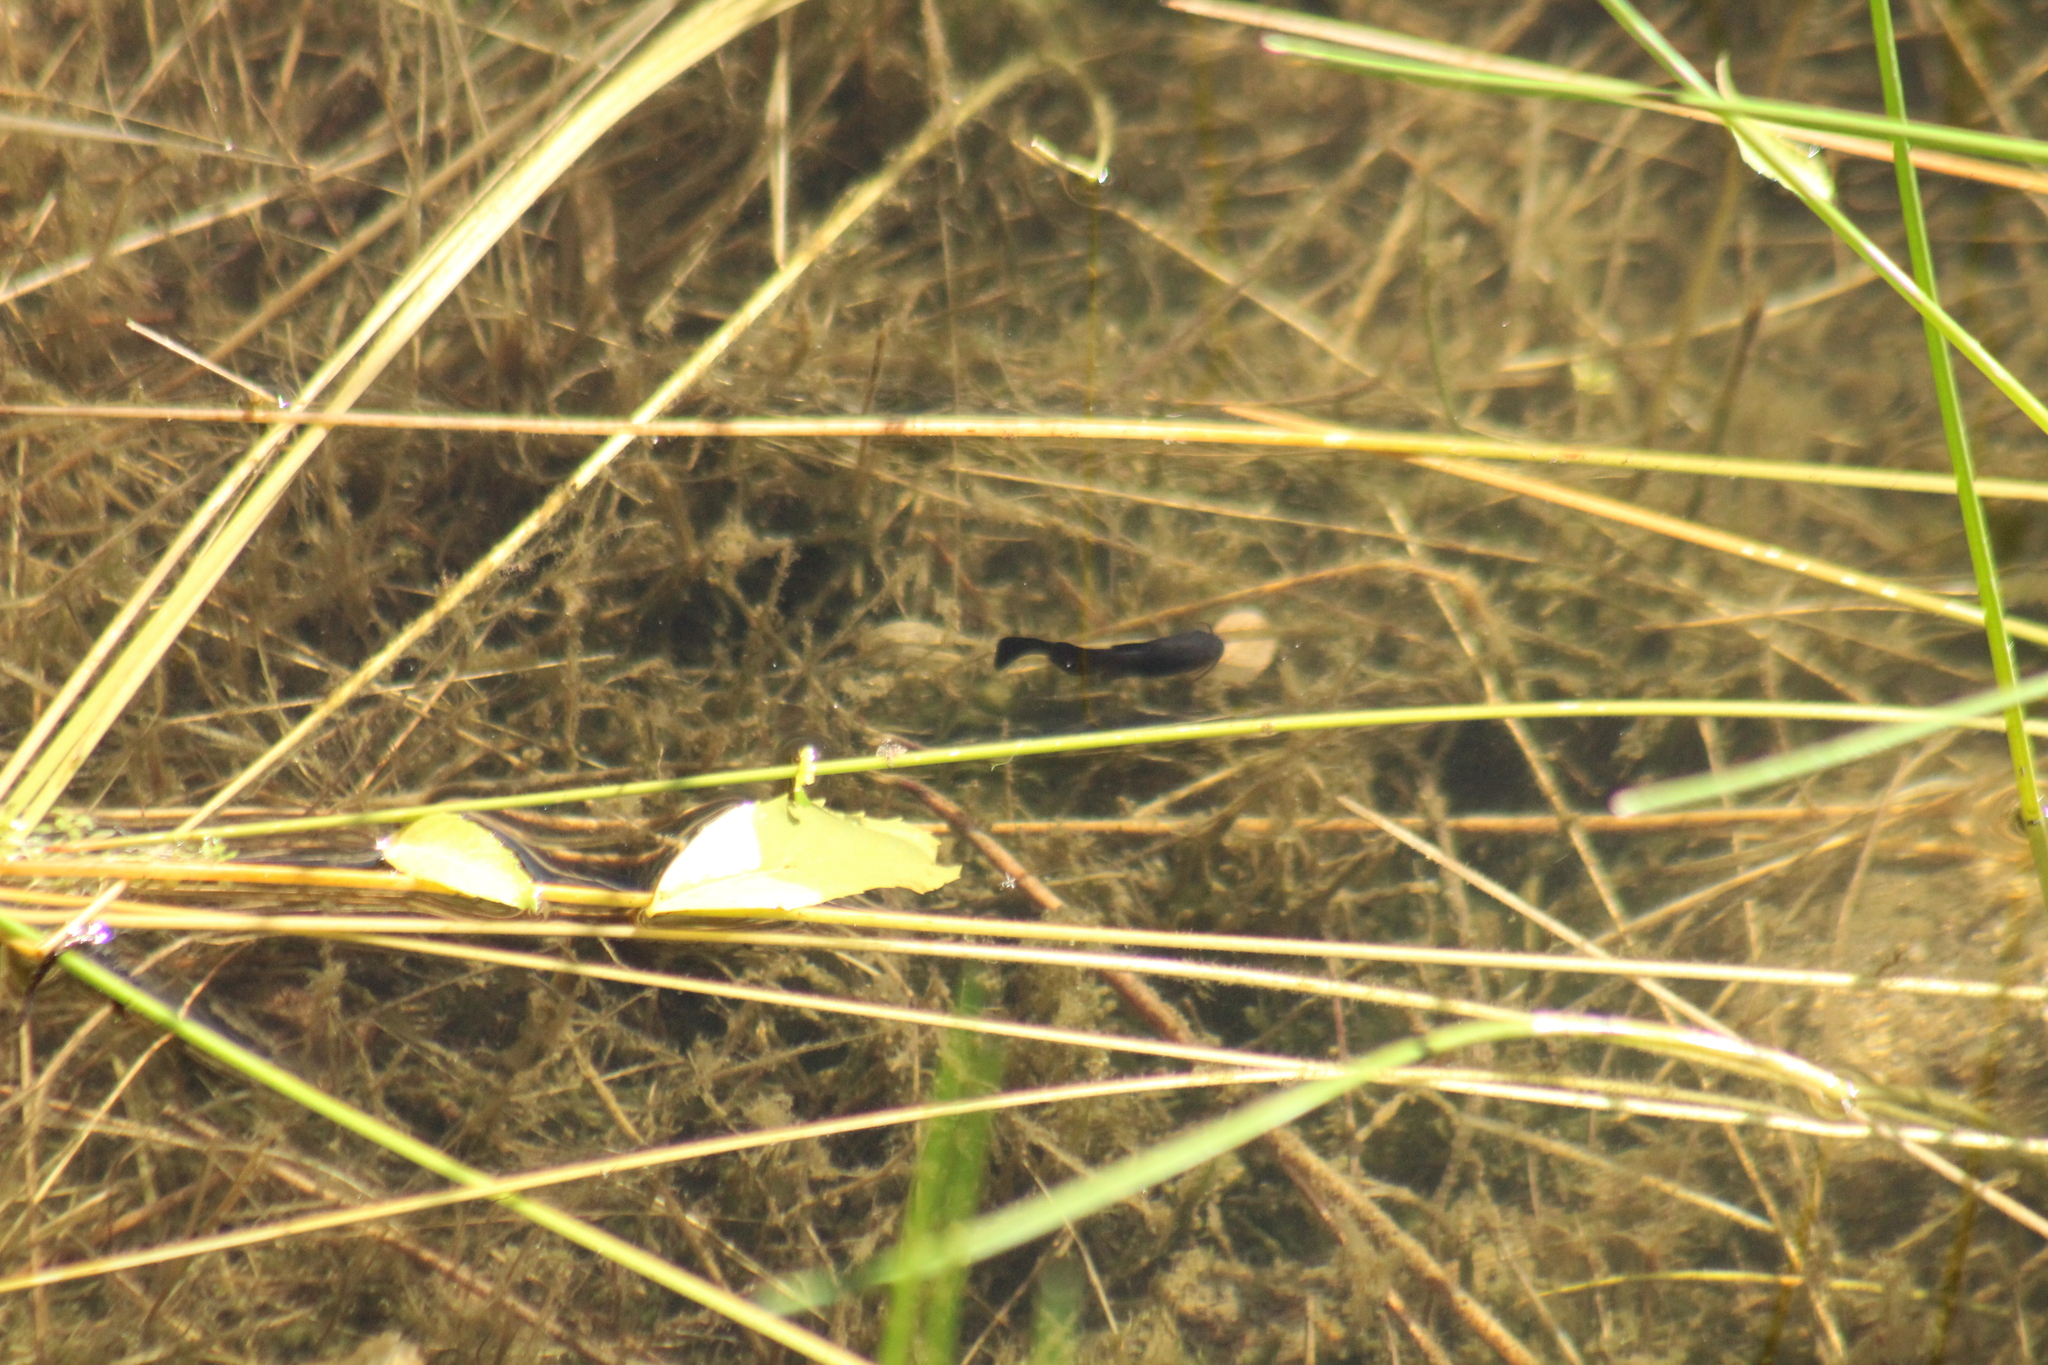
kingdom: Animalia
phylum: Chordata
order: Siluriformes
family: Ictaluridae
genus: Ameiurus
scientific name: Ameiurus melas
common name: Black bullhead
